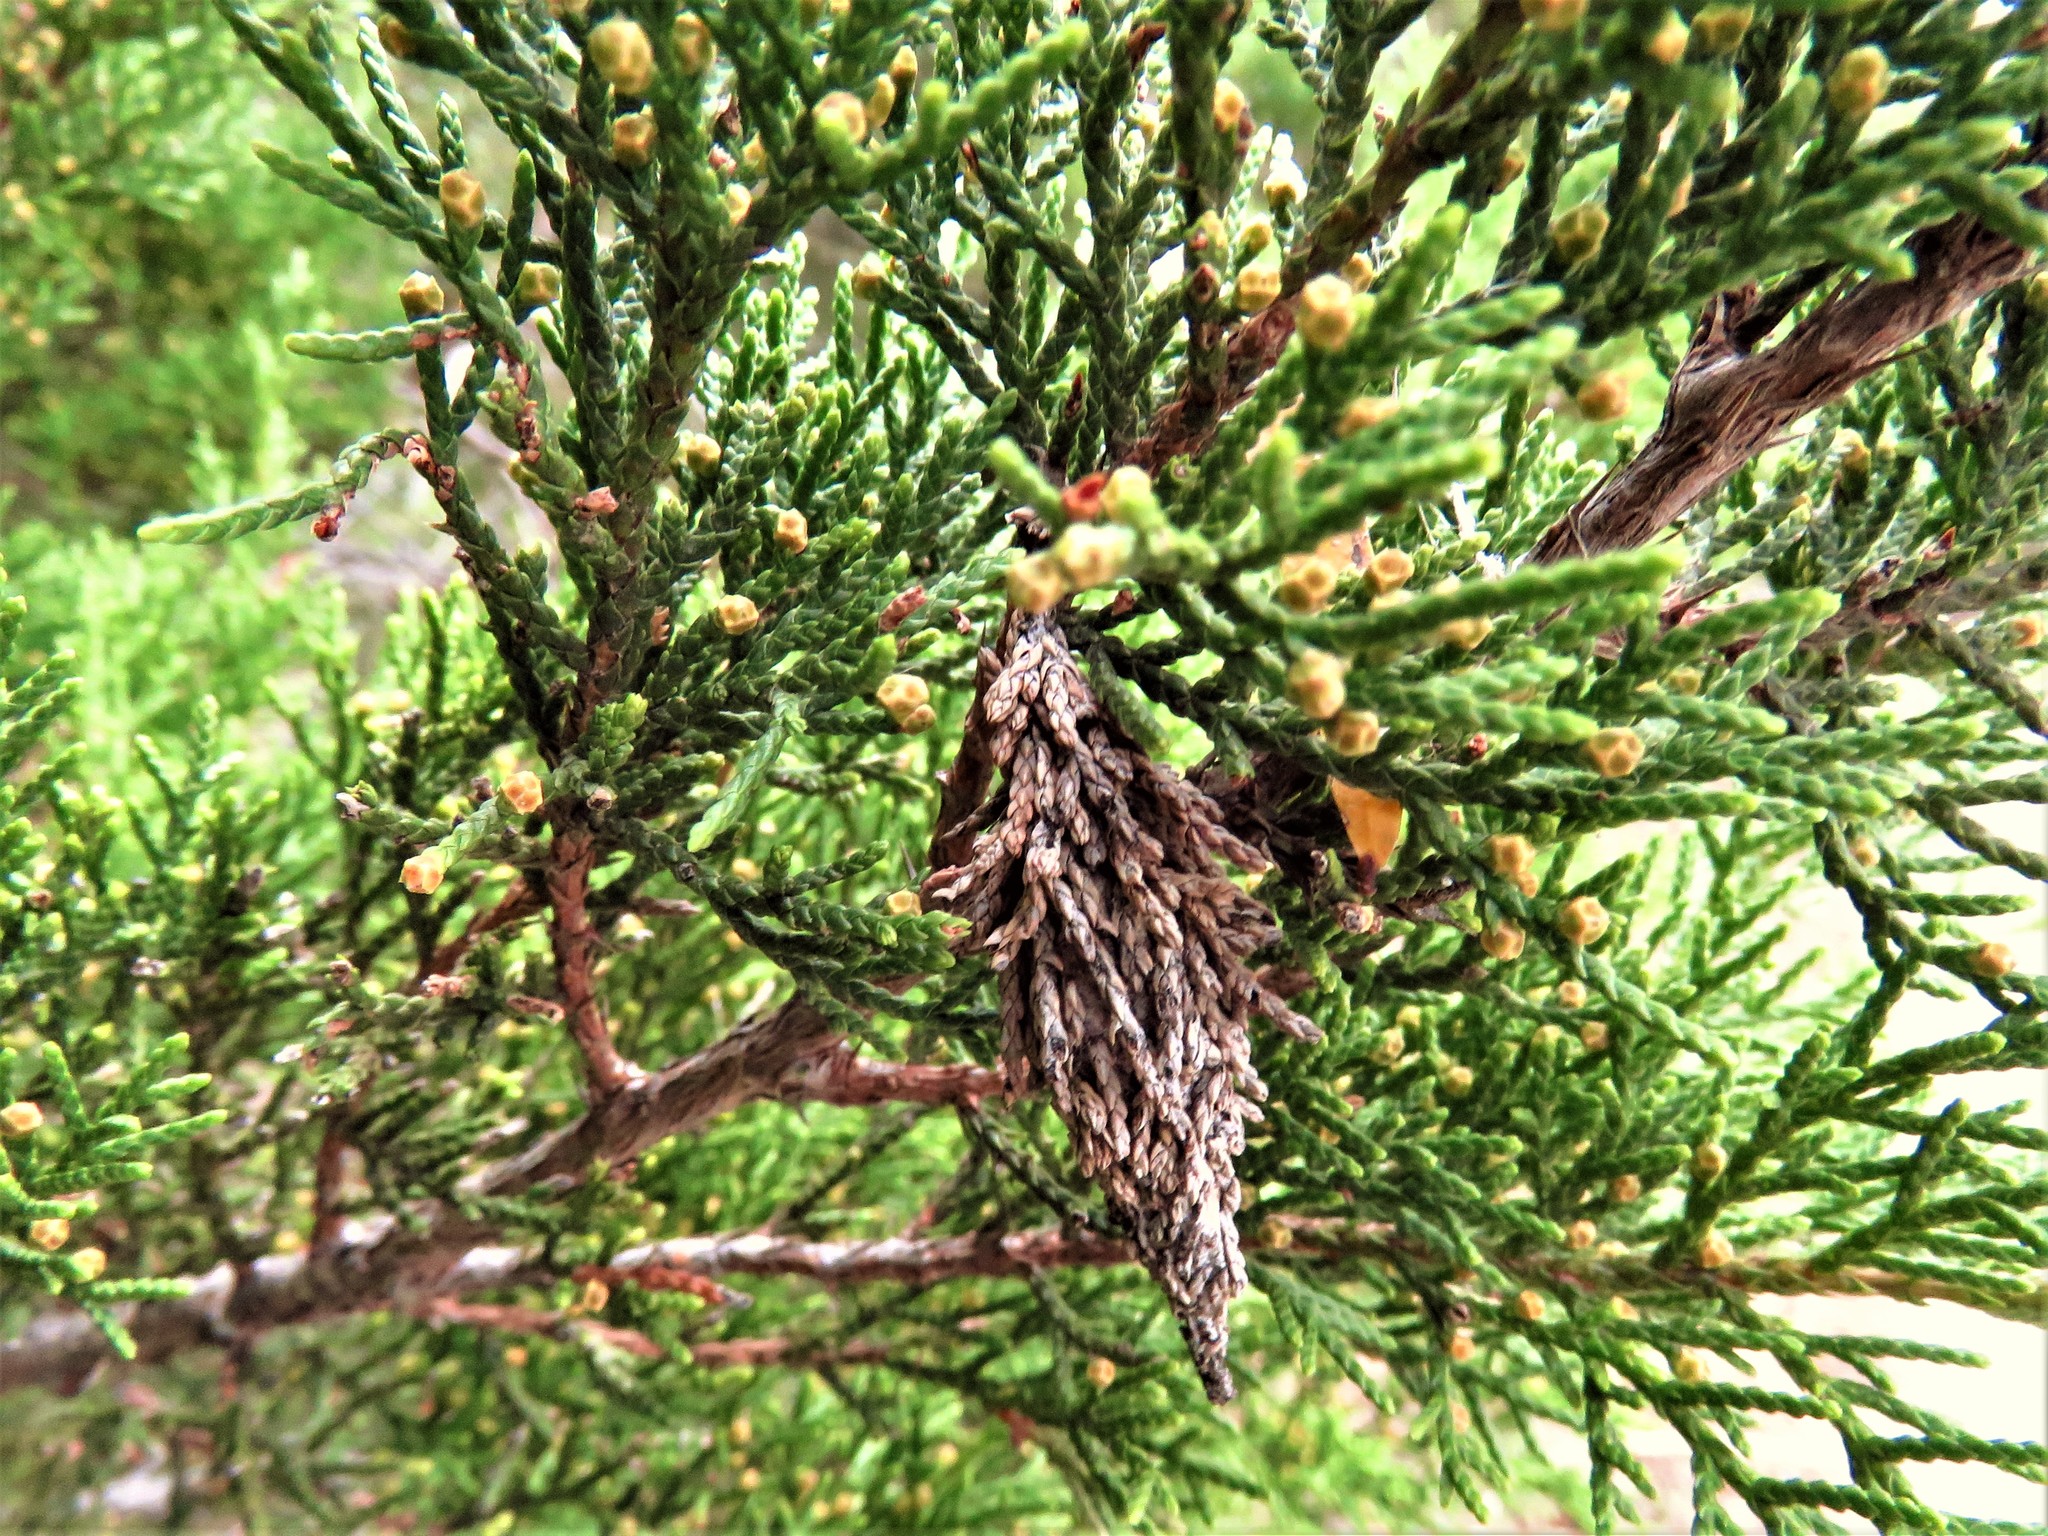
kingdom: Animalia
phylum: Arthropoda
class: Insecta
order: Lepidoptera
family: Psychidae
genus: Thyridopteryx
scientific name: Thyridopteryx ephemeraeformis
